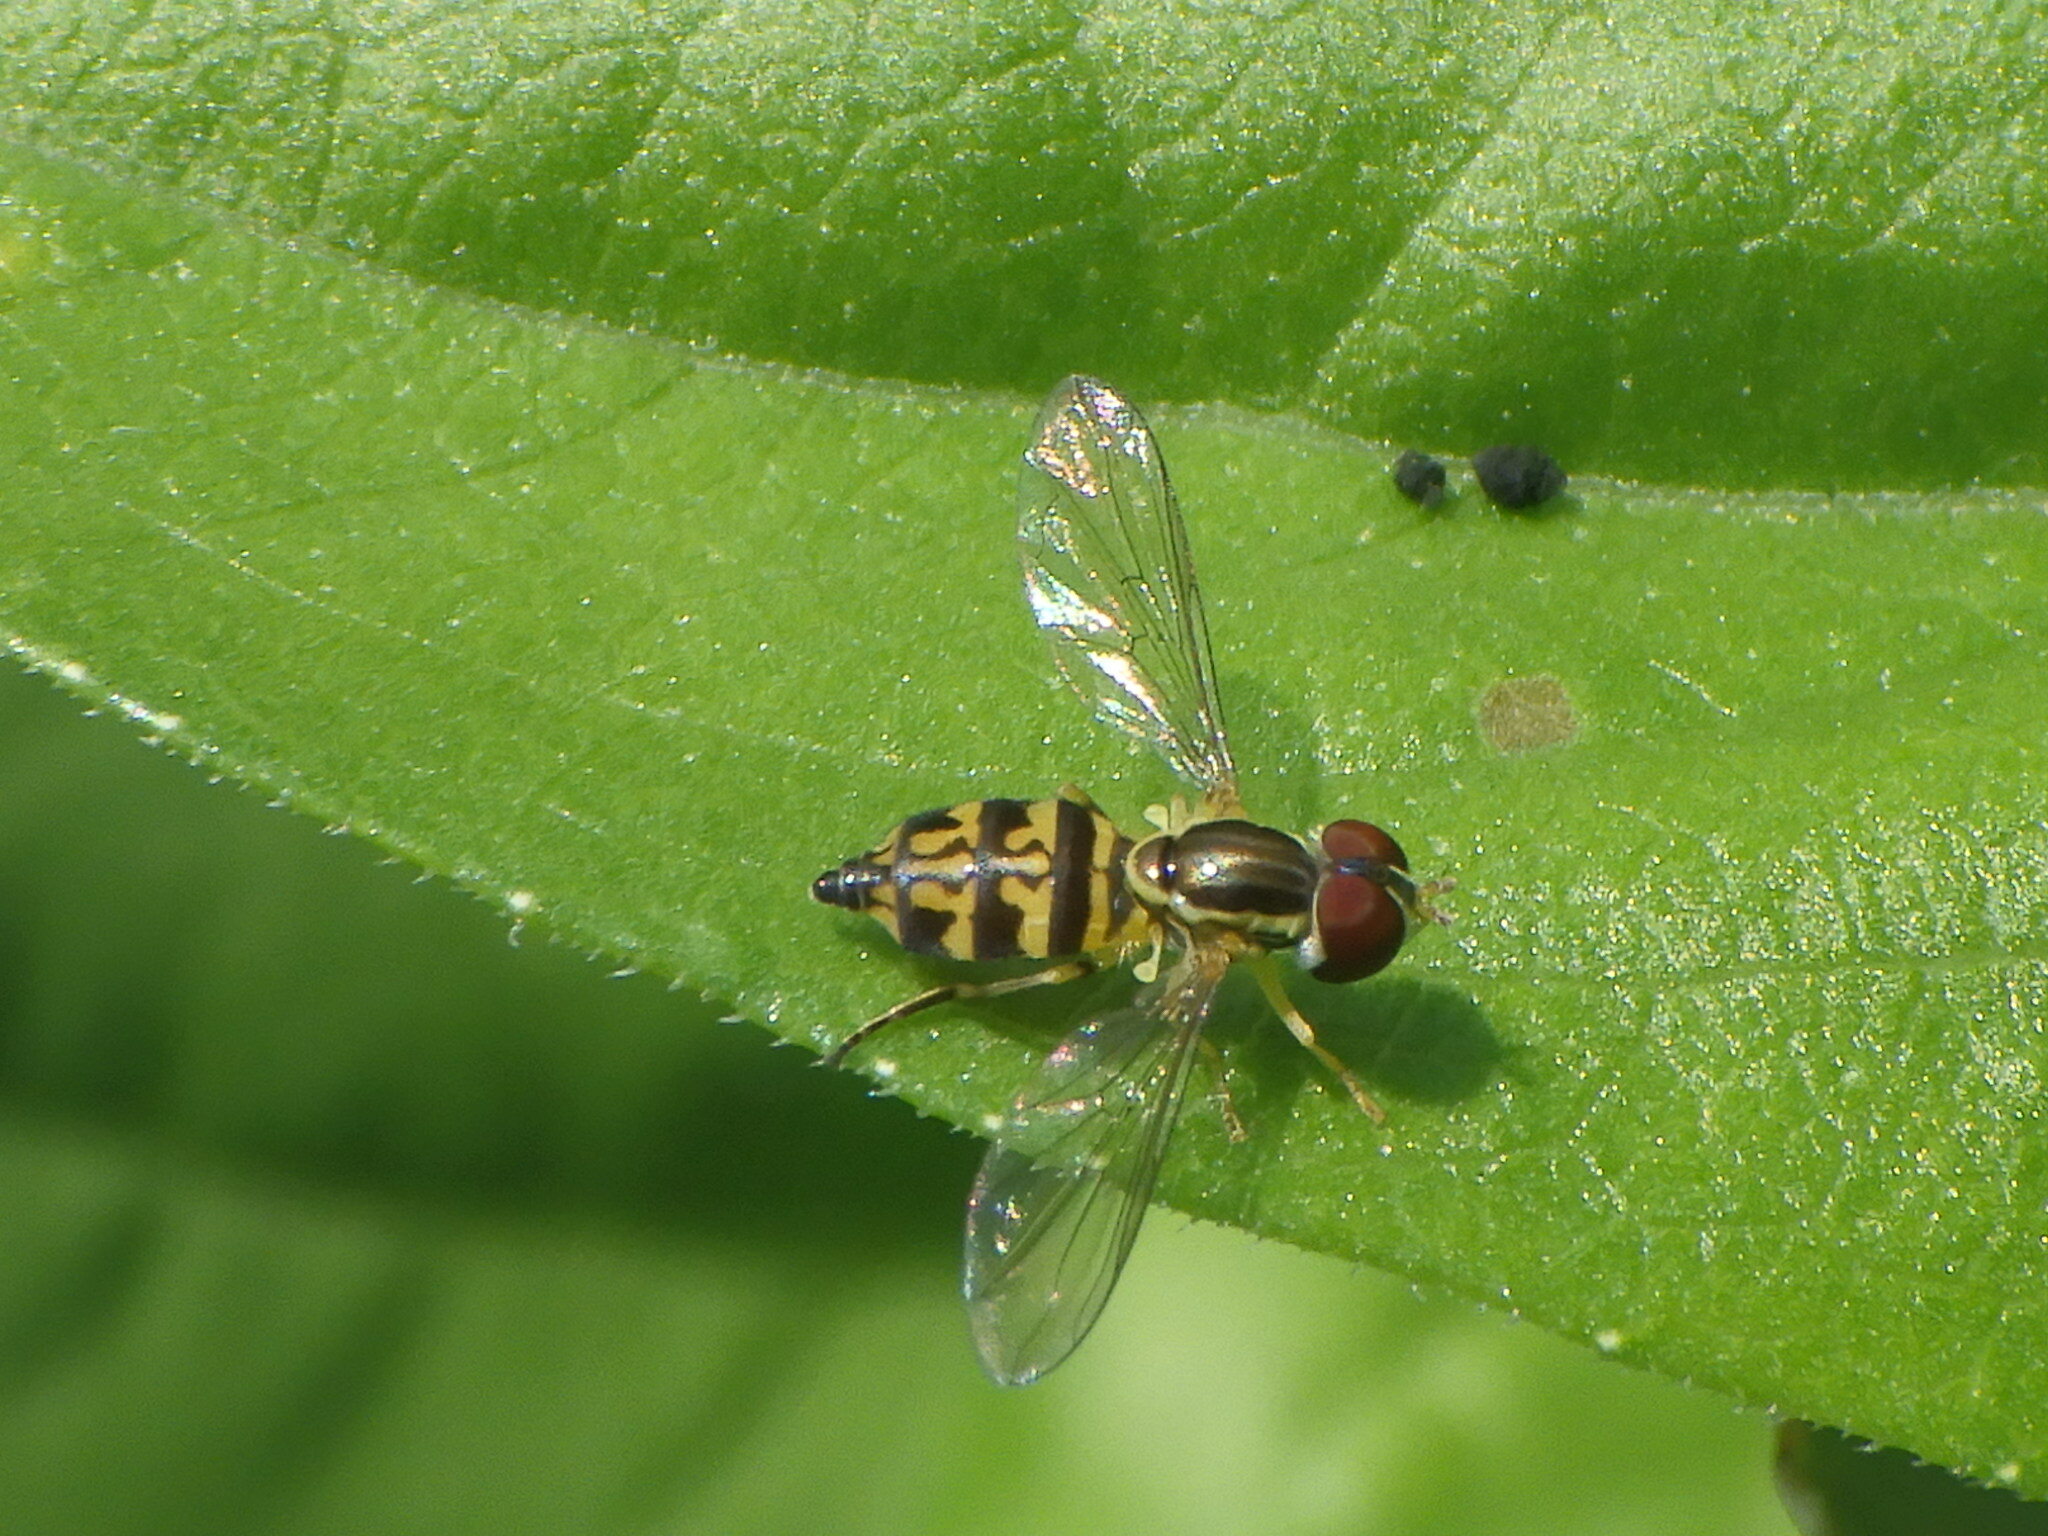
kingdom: Animalia
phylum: Arthropoda
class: Insecta
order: Diptera
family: Syrphidae
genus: Toxomerus
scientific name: Toxomerus geminatus
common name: Eastern calligrapher
